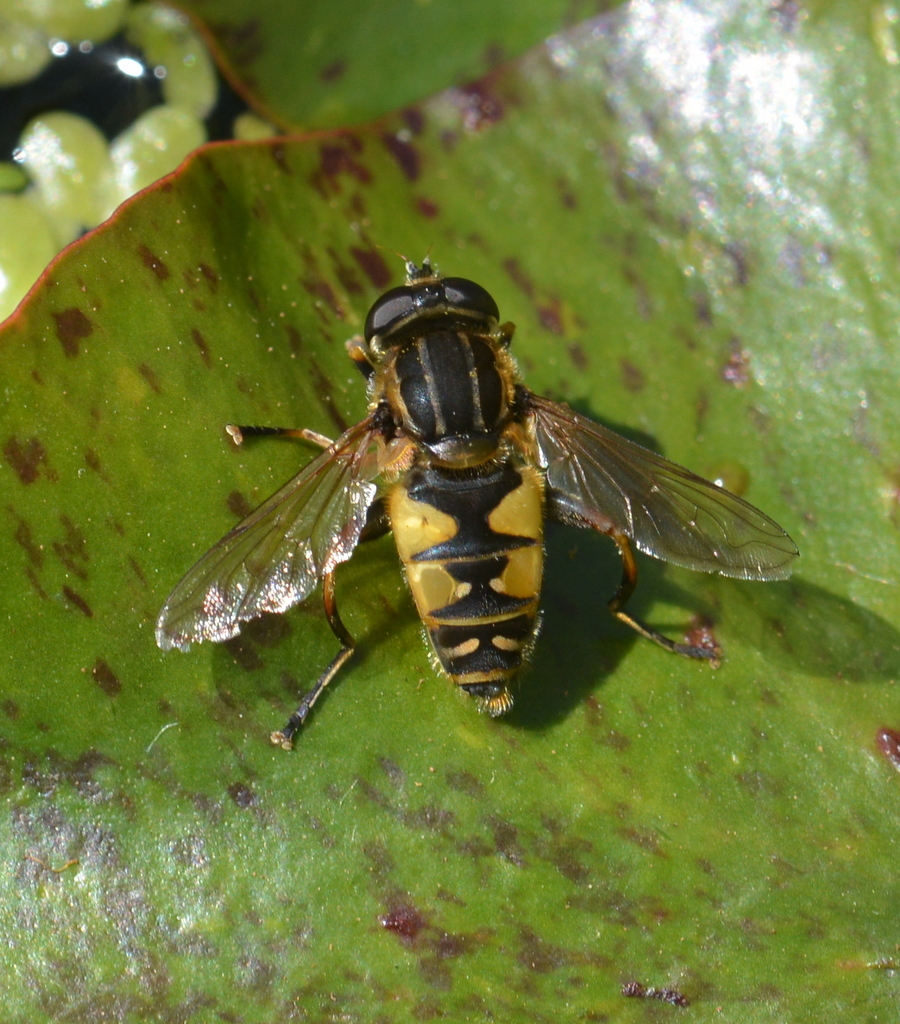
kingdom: Animalia
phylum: Arthropoda
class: Insecta
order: Diptera
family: Syrphidae
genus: Helophilus
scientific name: Helophilus pendulus
